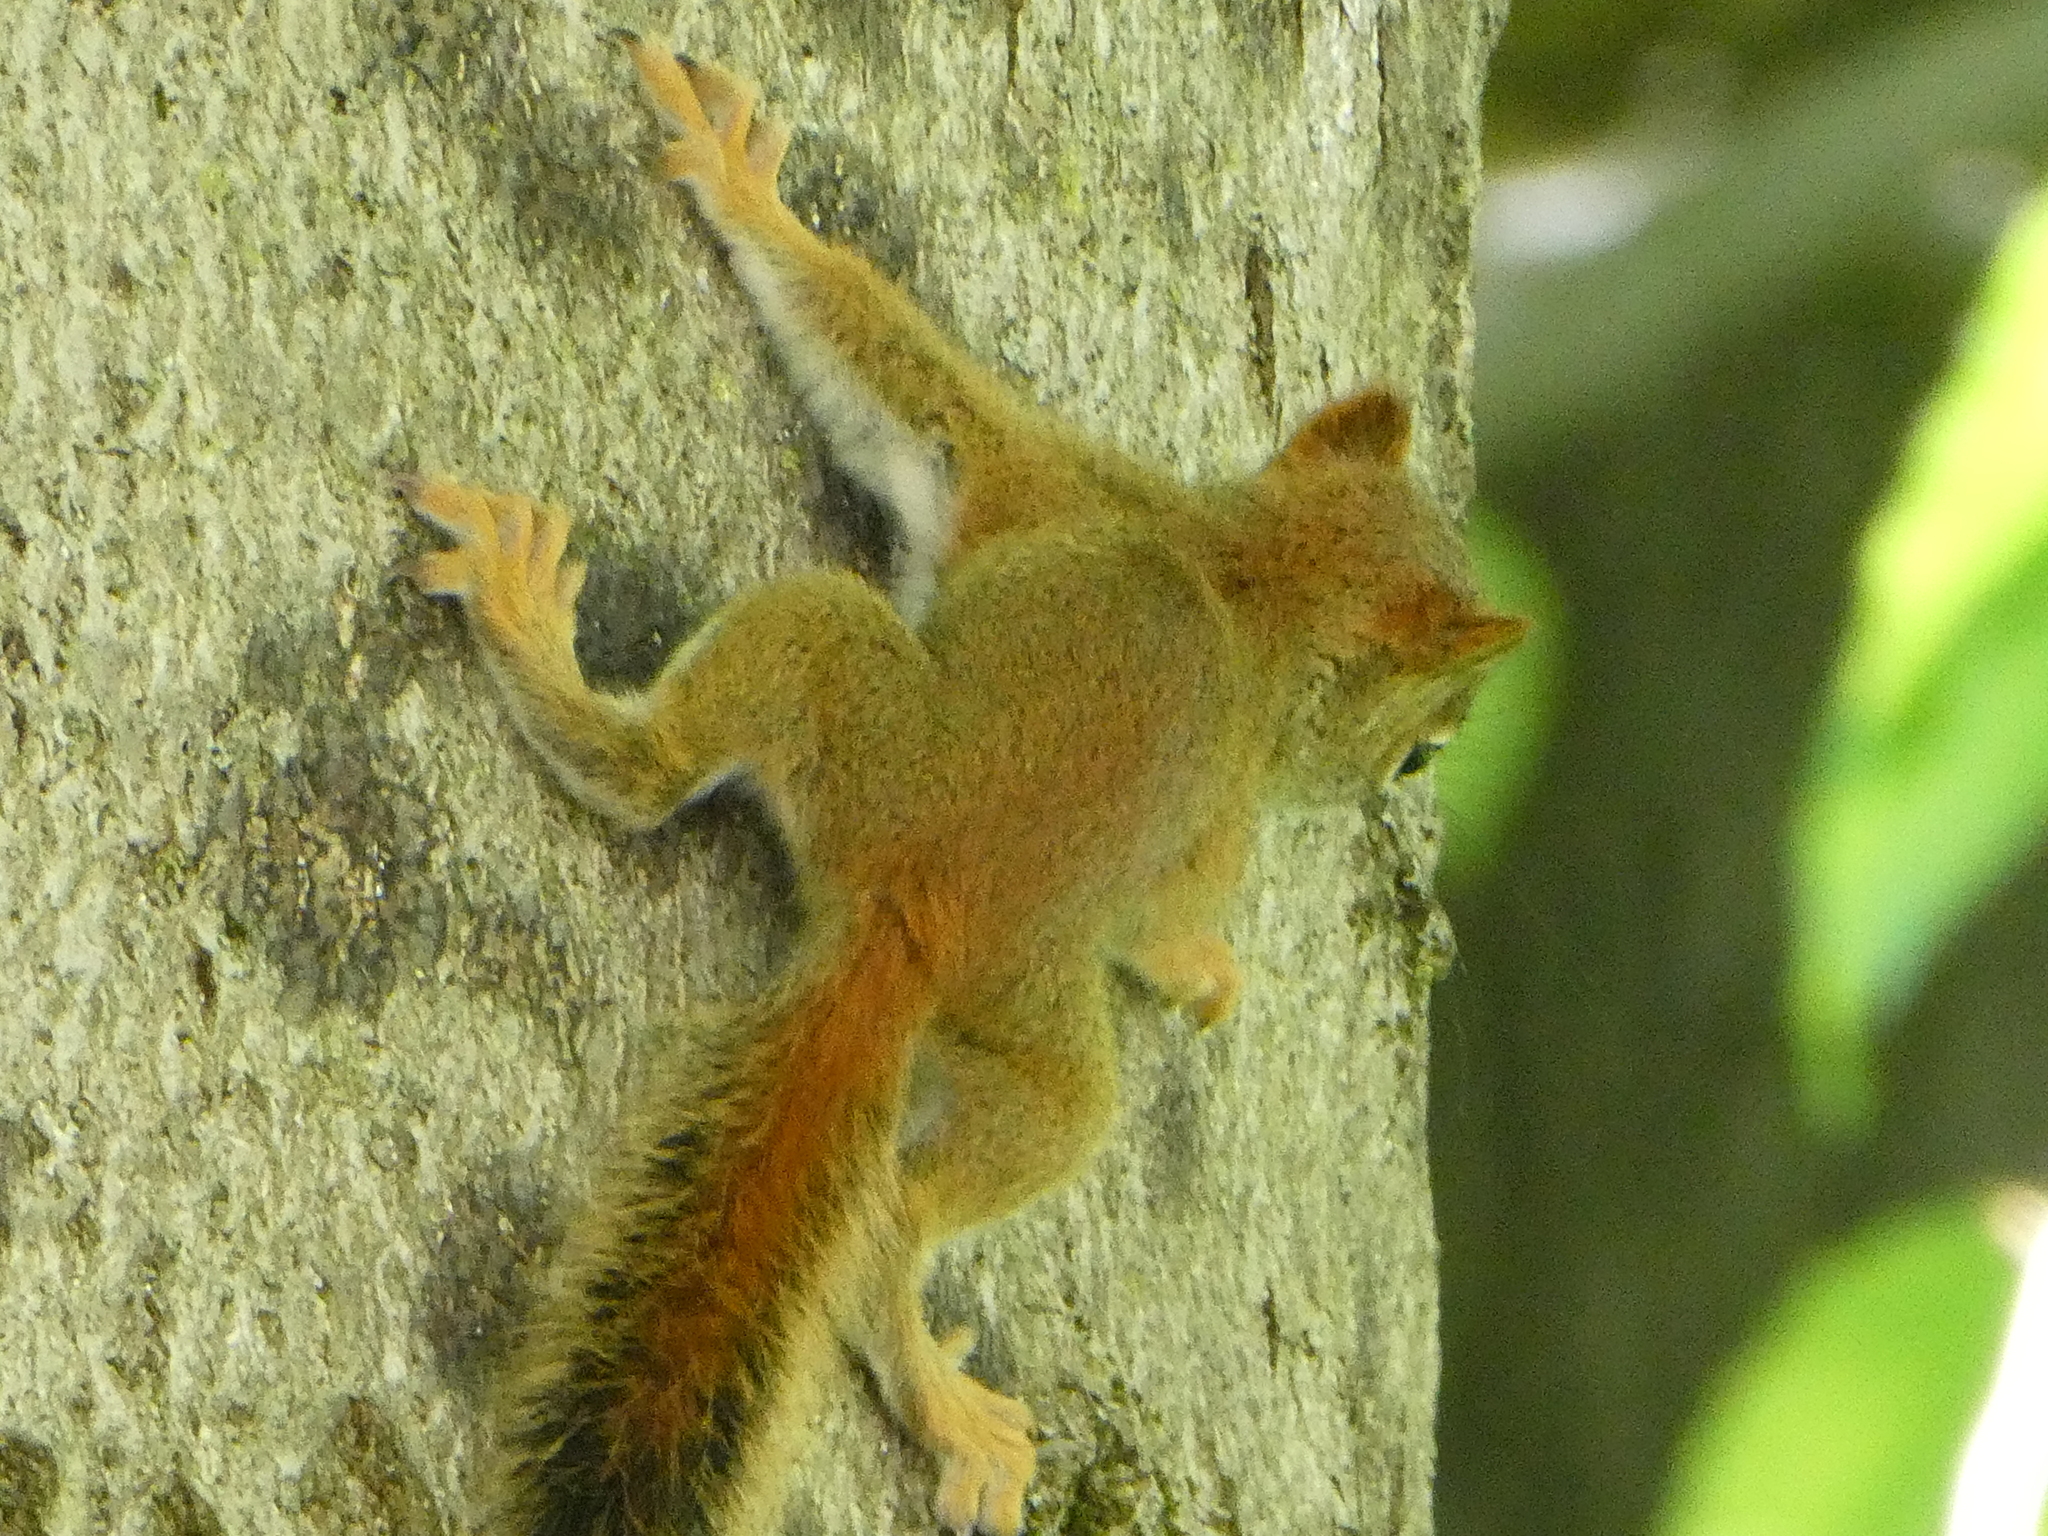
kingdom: Animalia
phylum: Chordata
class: Mammalia
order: Rodentia
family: Sciuridae
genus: Tamiasciurus
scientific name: Tamiasciurus hudsonicus
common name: Red squirrel
